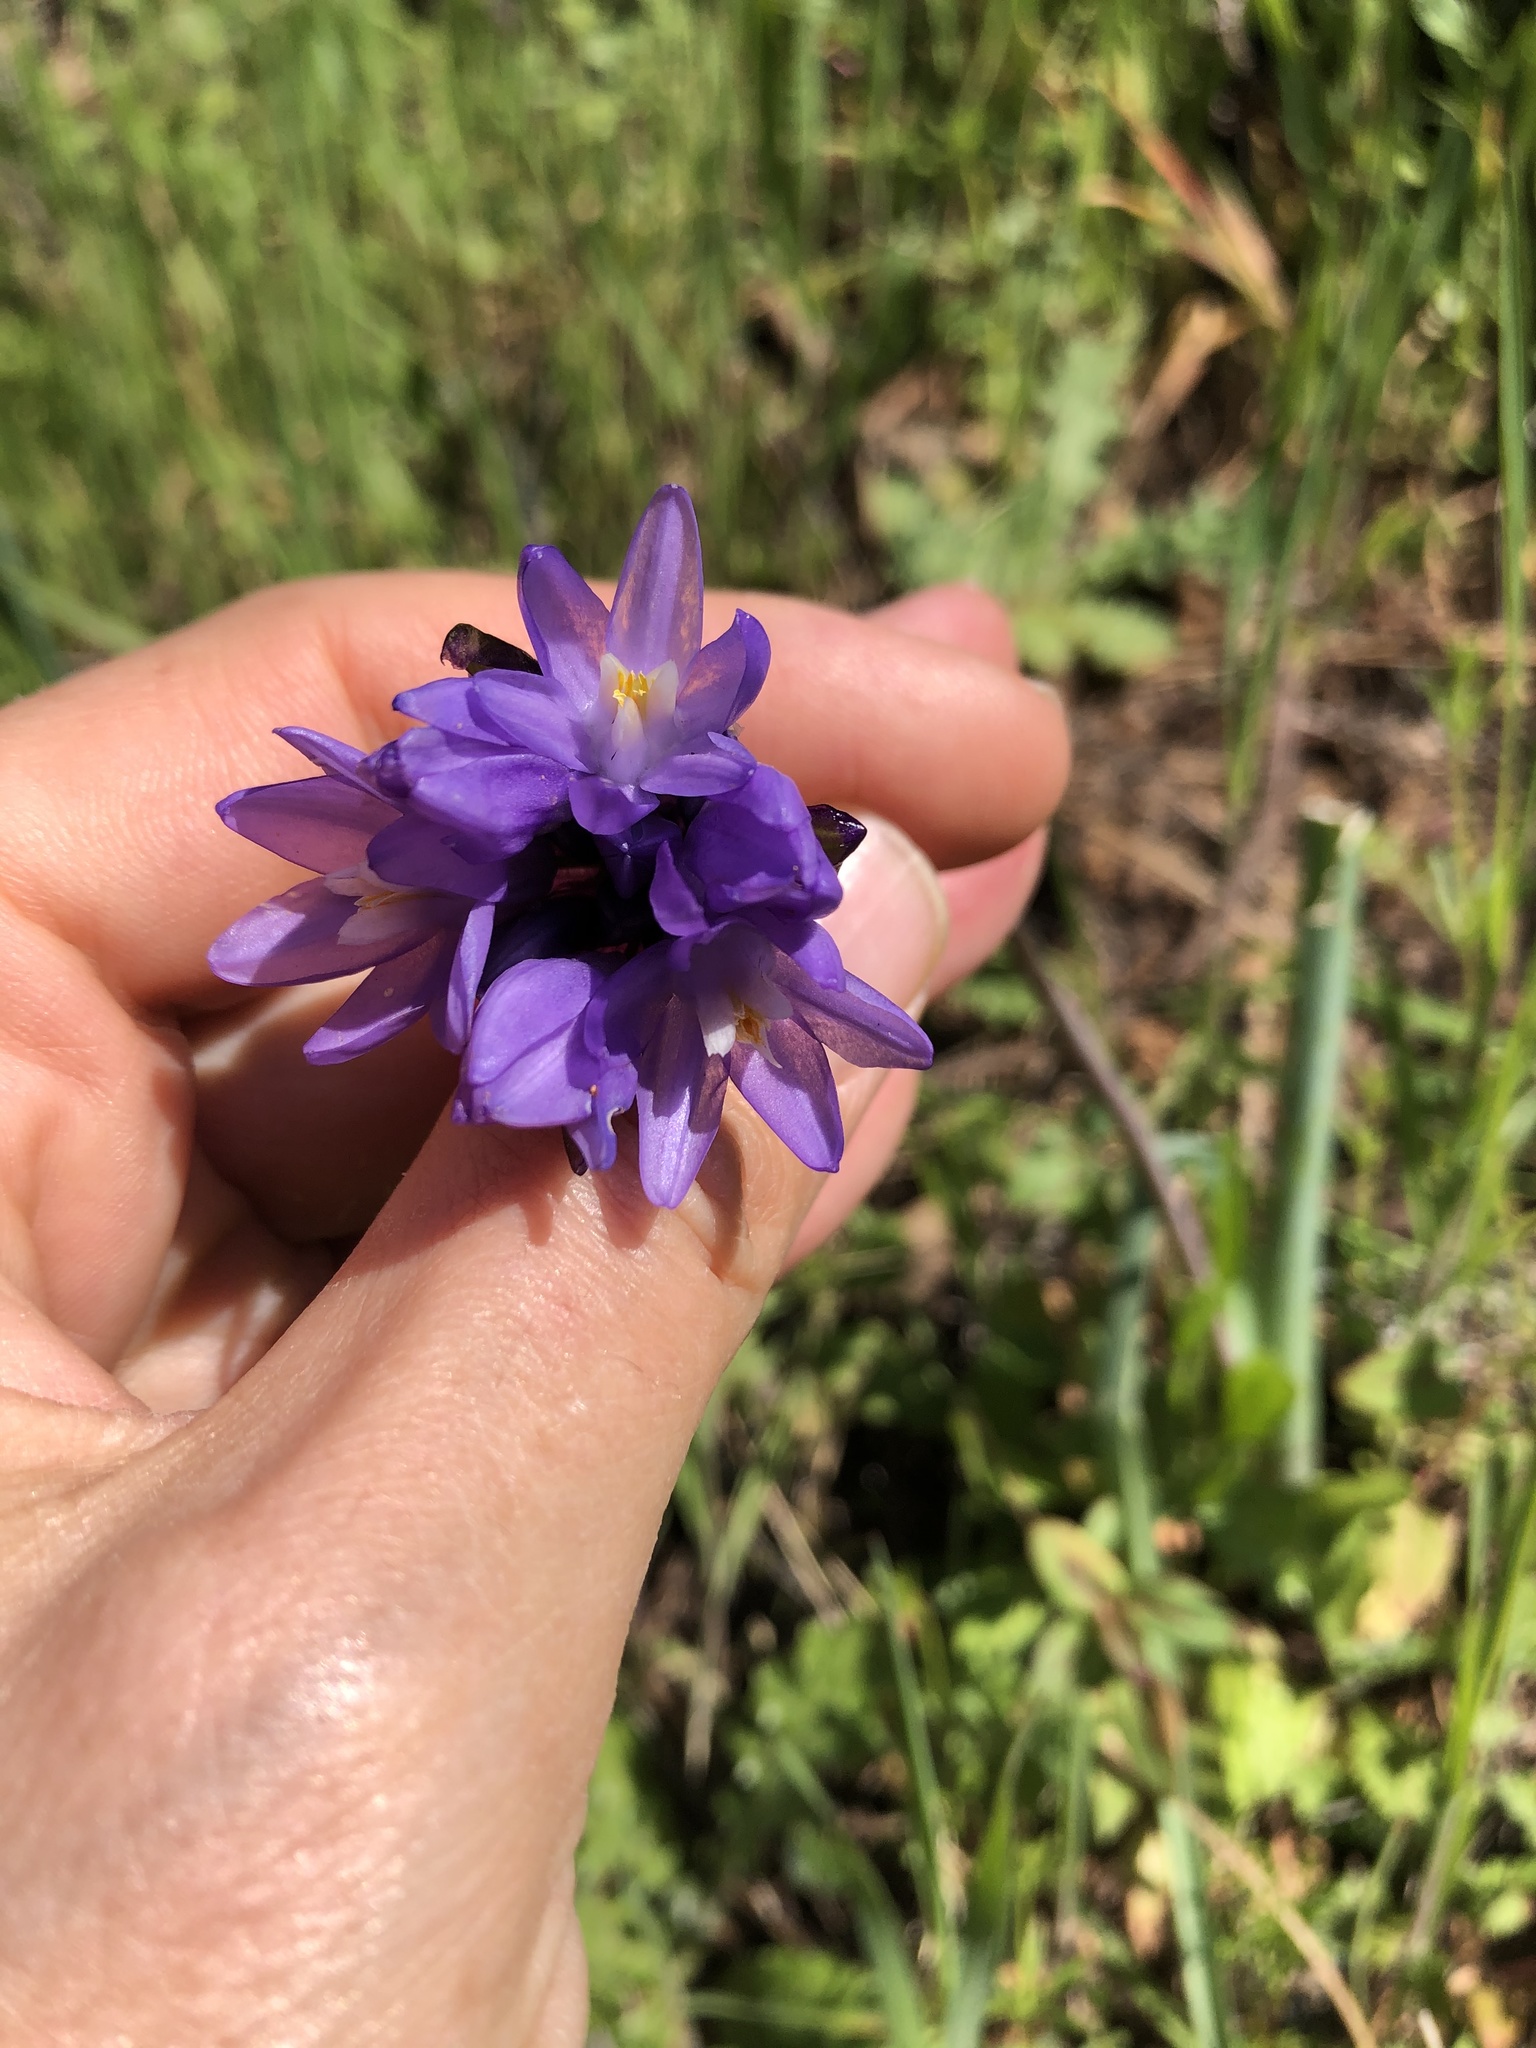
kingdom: Plantae
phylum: Tracheophyta
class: Liliopsida
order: Asparagales
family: Asparagaceae
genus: Dipterostemon
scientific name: Dipterostemon capitatus
